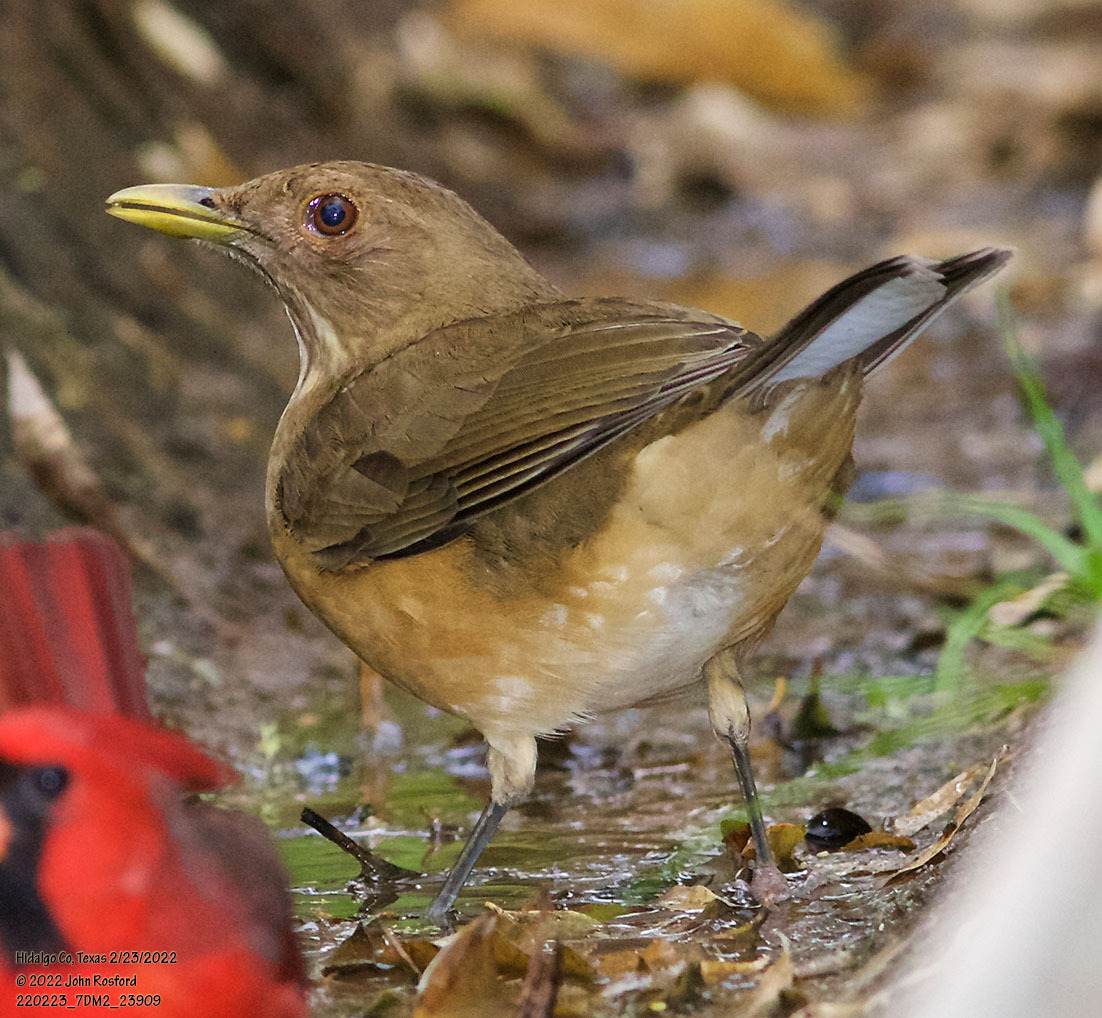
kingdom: Animalia
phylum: Chordata
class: Aves
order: Passeriformes
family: Turdidae
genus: Turdus
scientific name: Turdus grayi
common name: Clay-colored thrush
